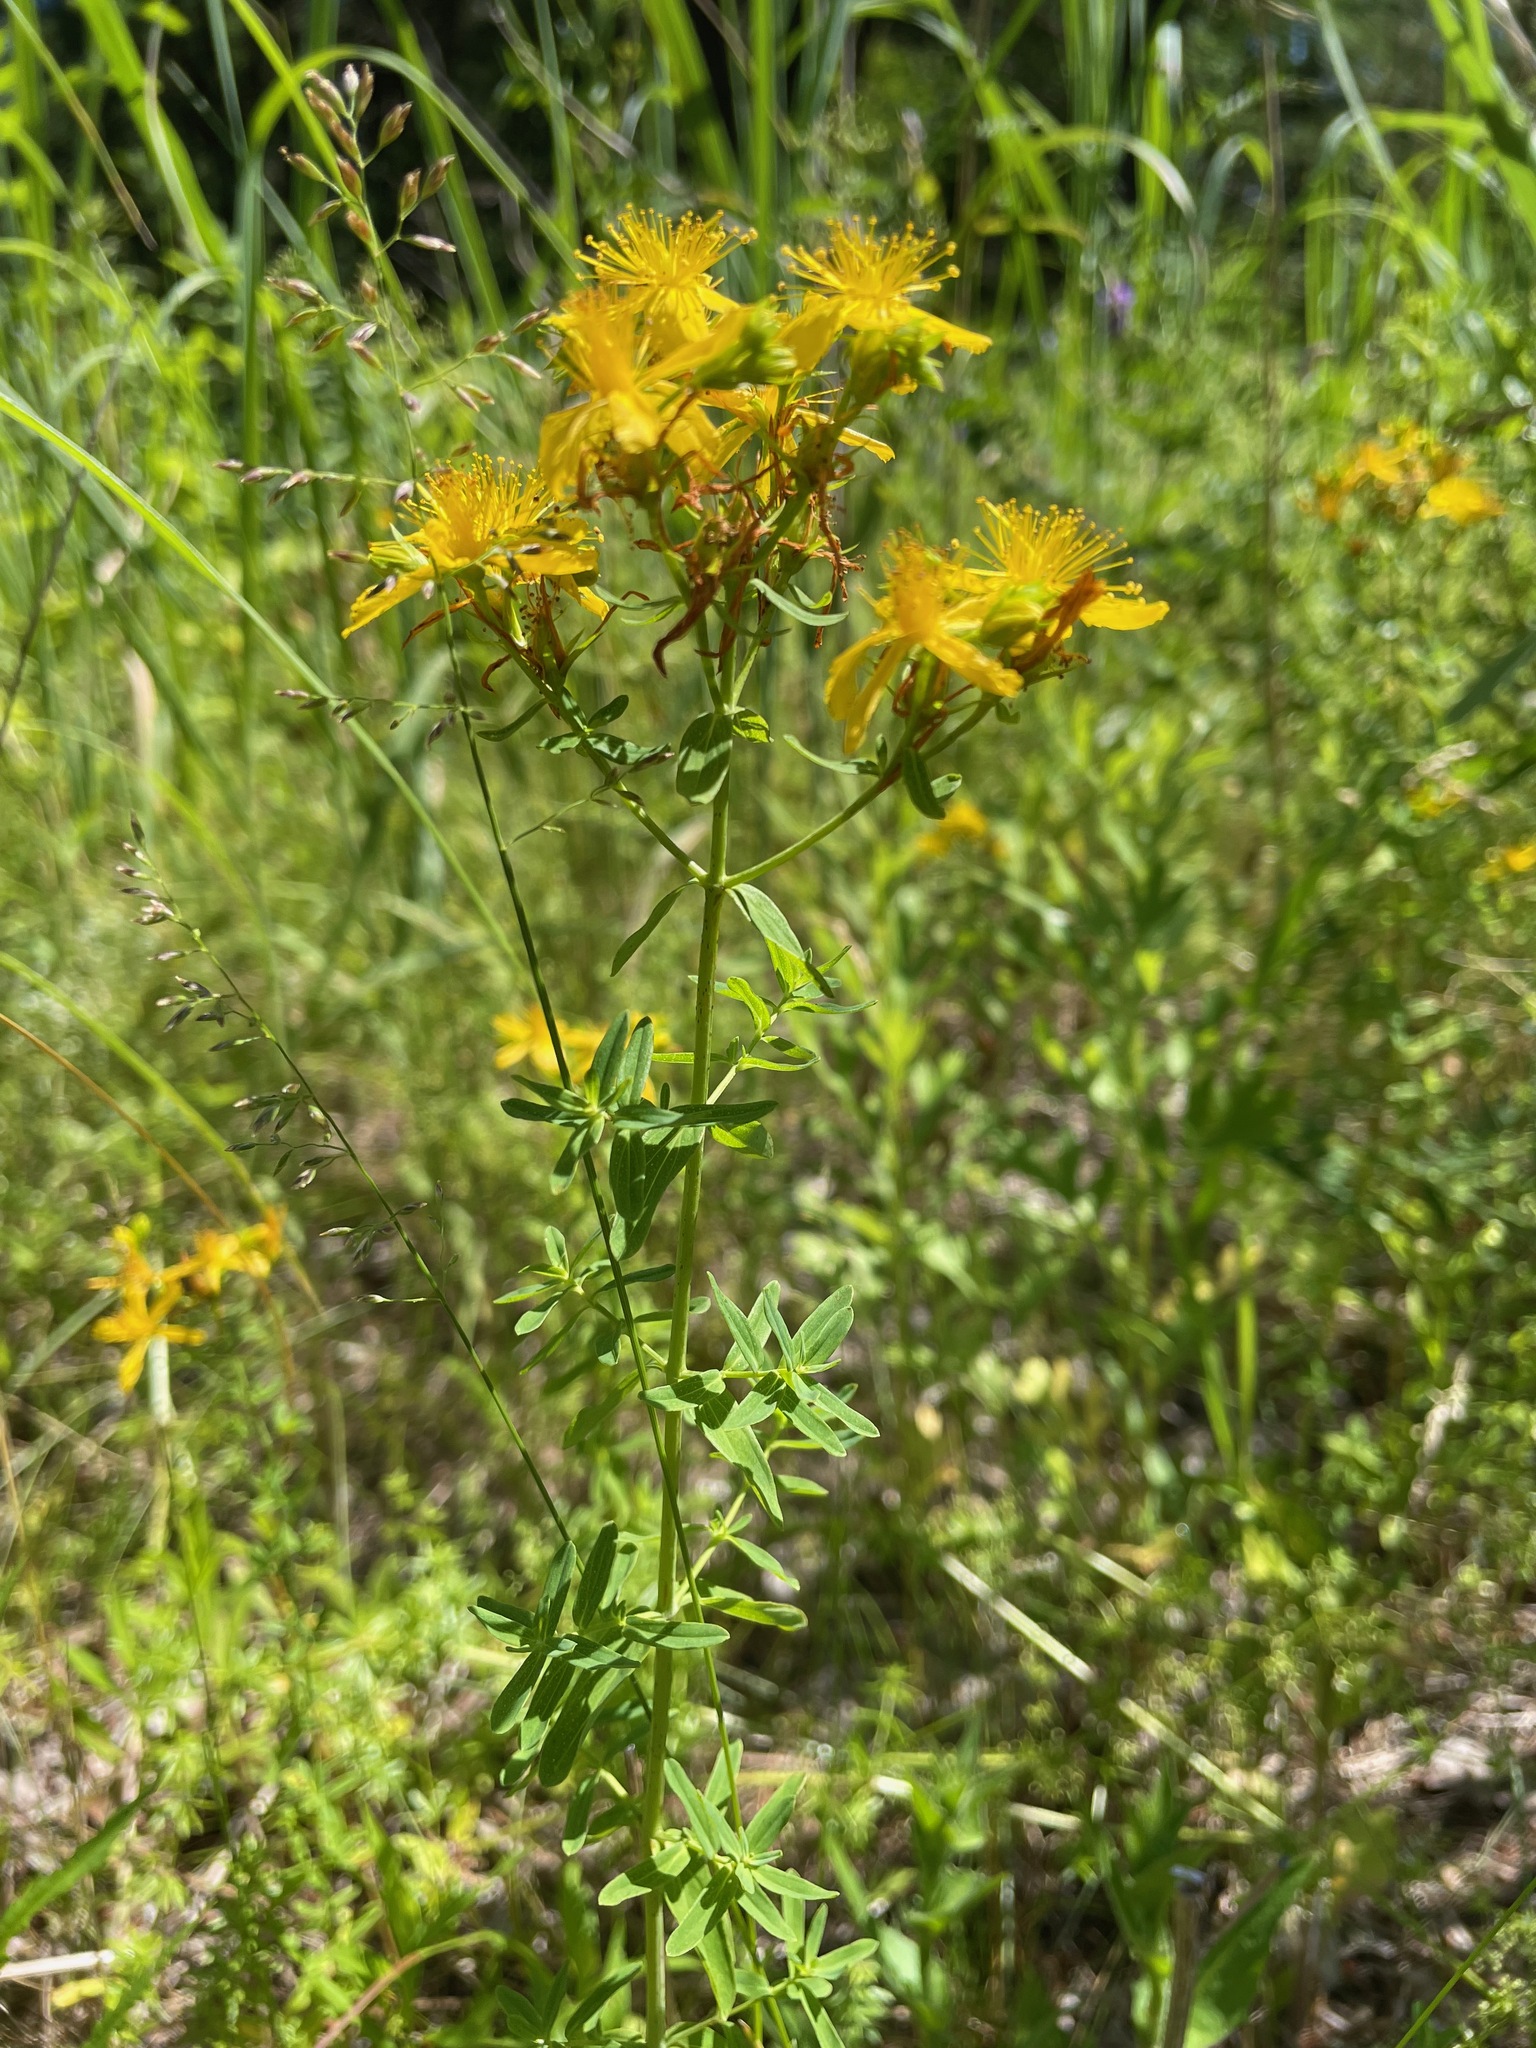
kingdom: Plantae
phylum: Tracheophyta
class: Magnoliopsida
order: Malpighiales
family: Hypericaceae
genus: Hypericum
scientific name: Hypericum perforatum
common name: Common st. johnswort
